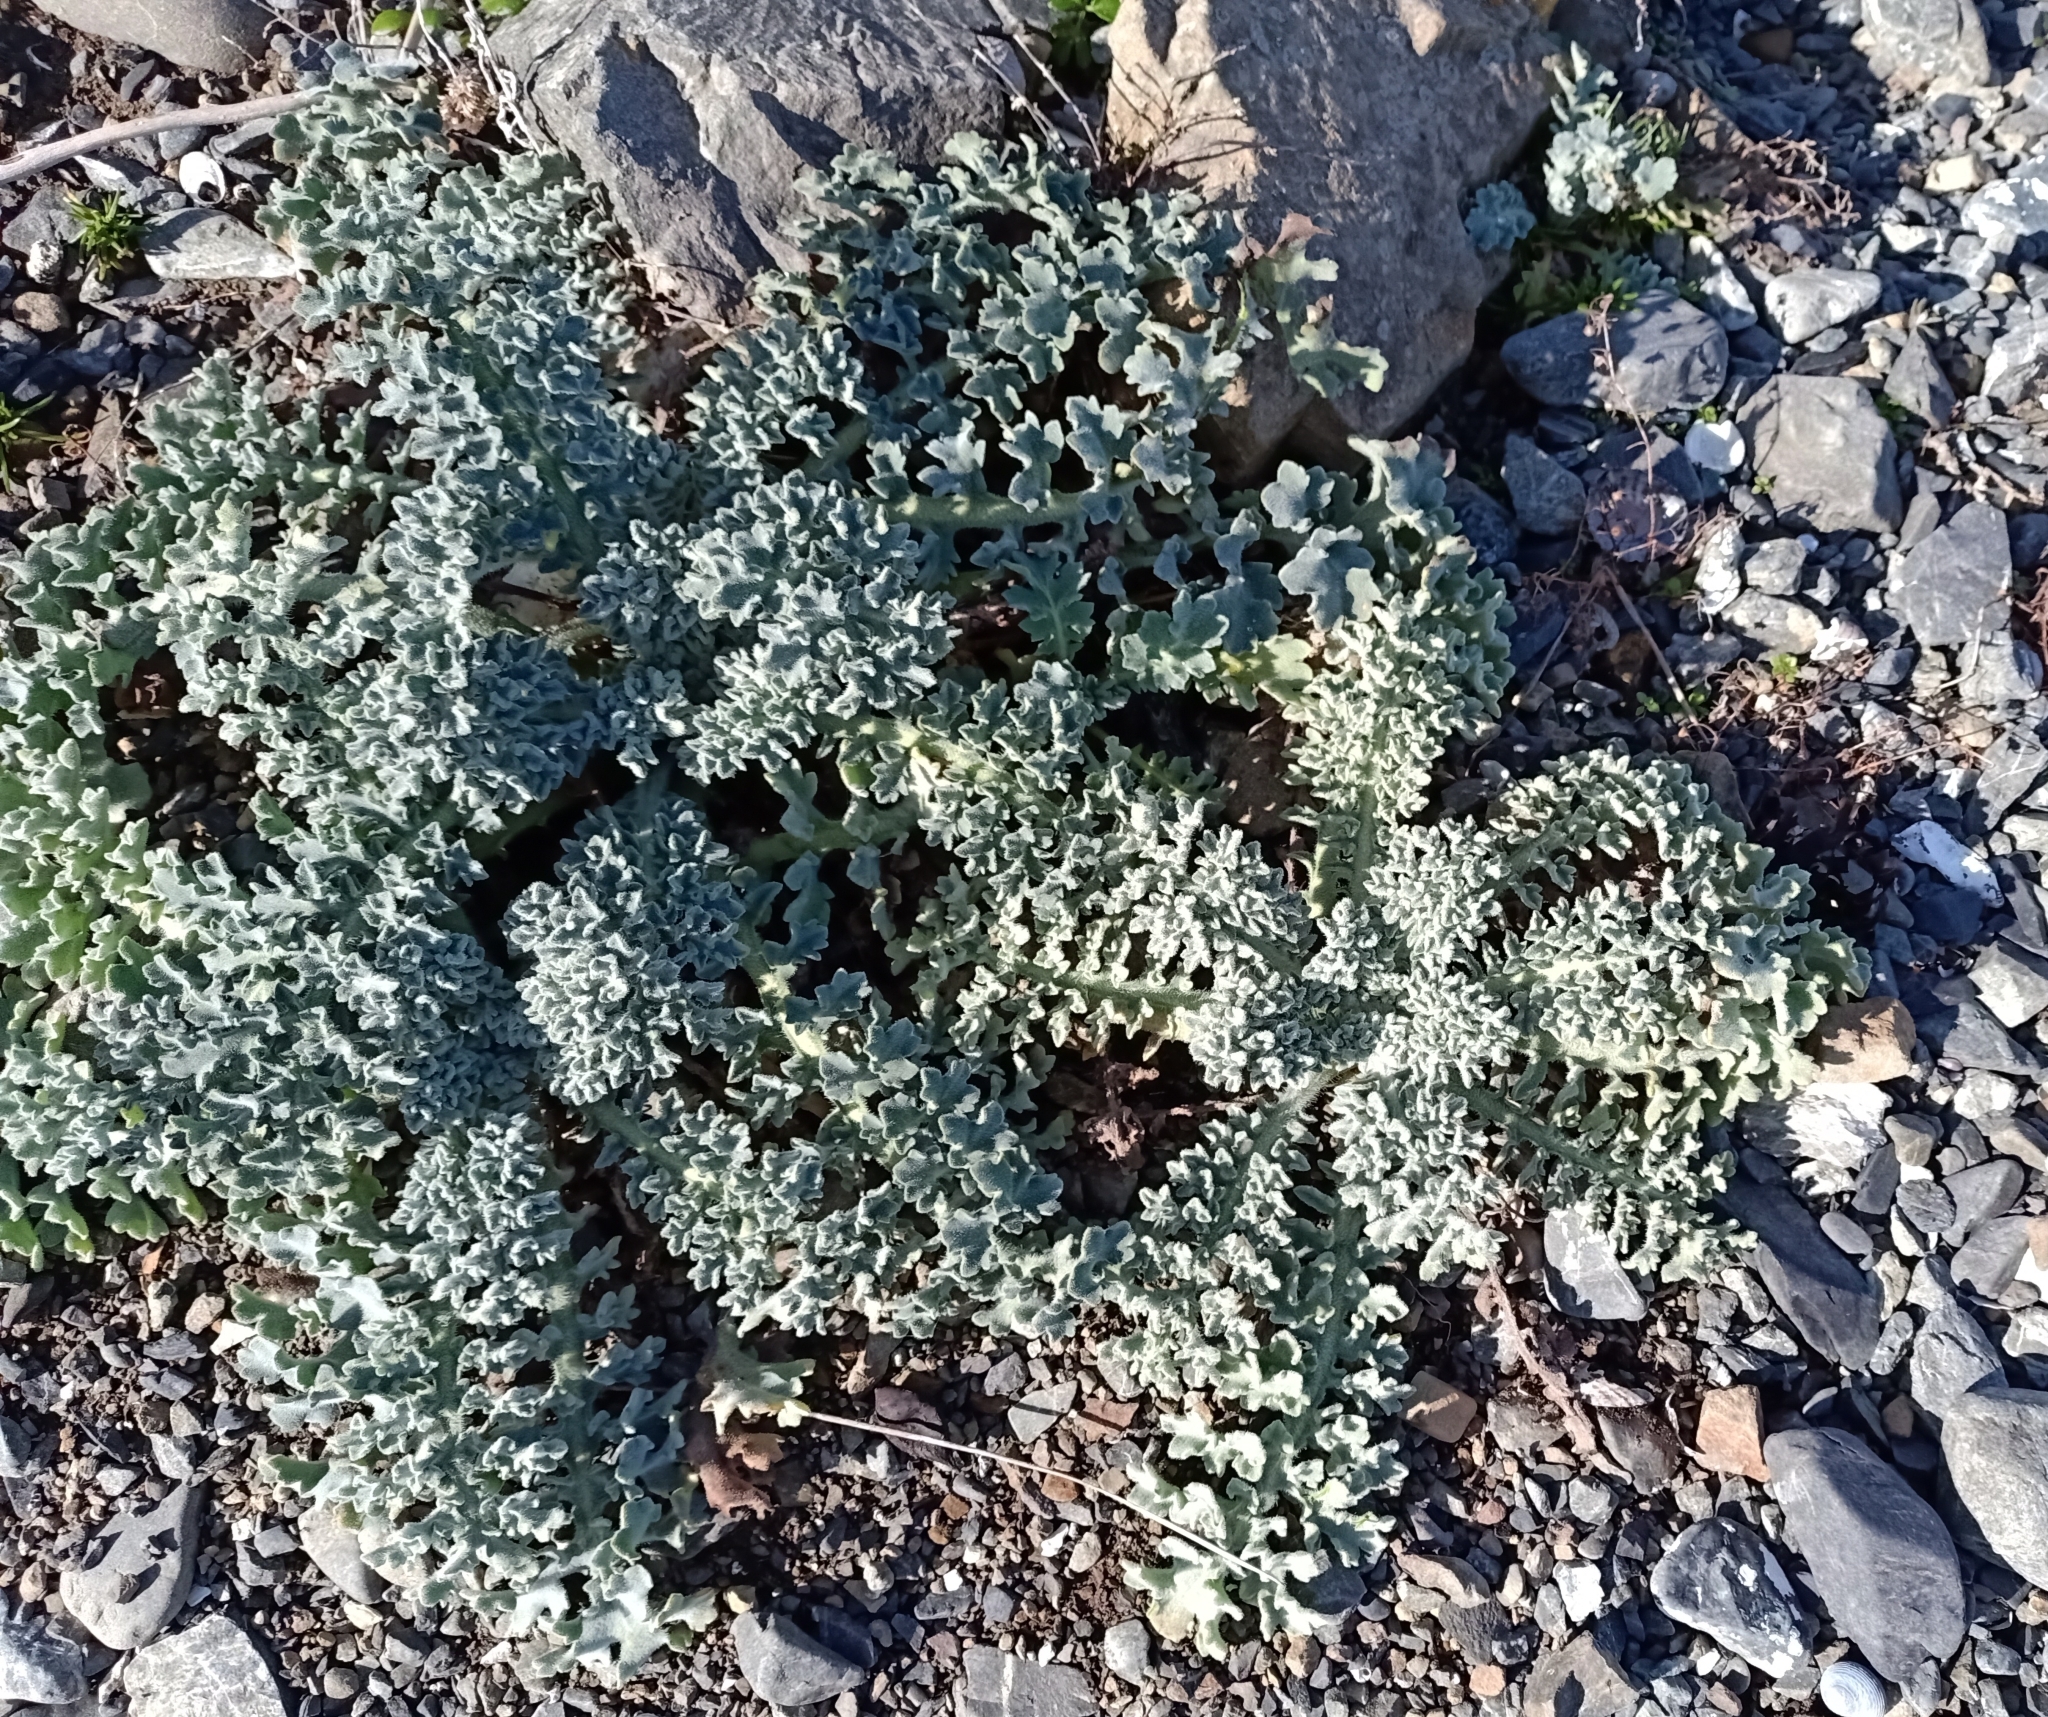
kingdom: Plantae
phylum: Tracheophyta
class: Magnoliopsida
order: Ranunculales
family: Papaveraceae
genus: Glaucium
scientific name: Glaucium flavum
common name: Yellow horned-poppy
